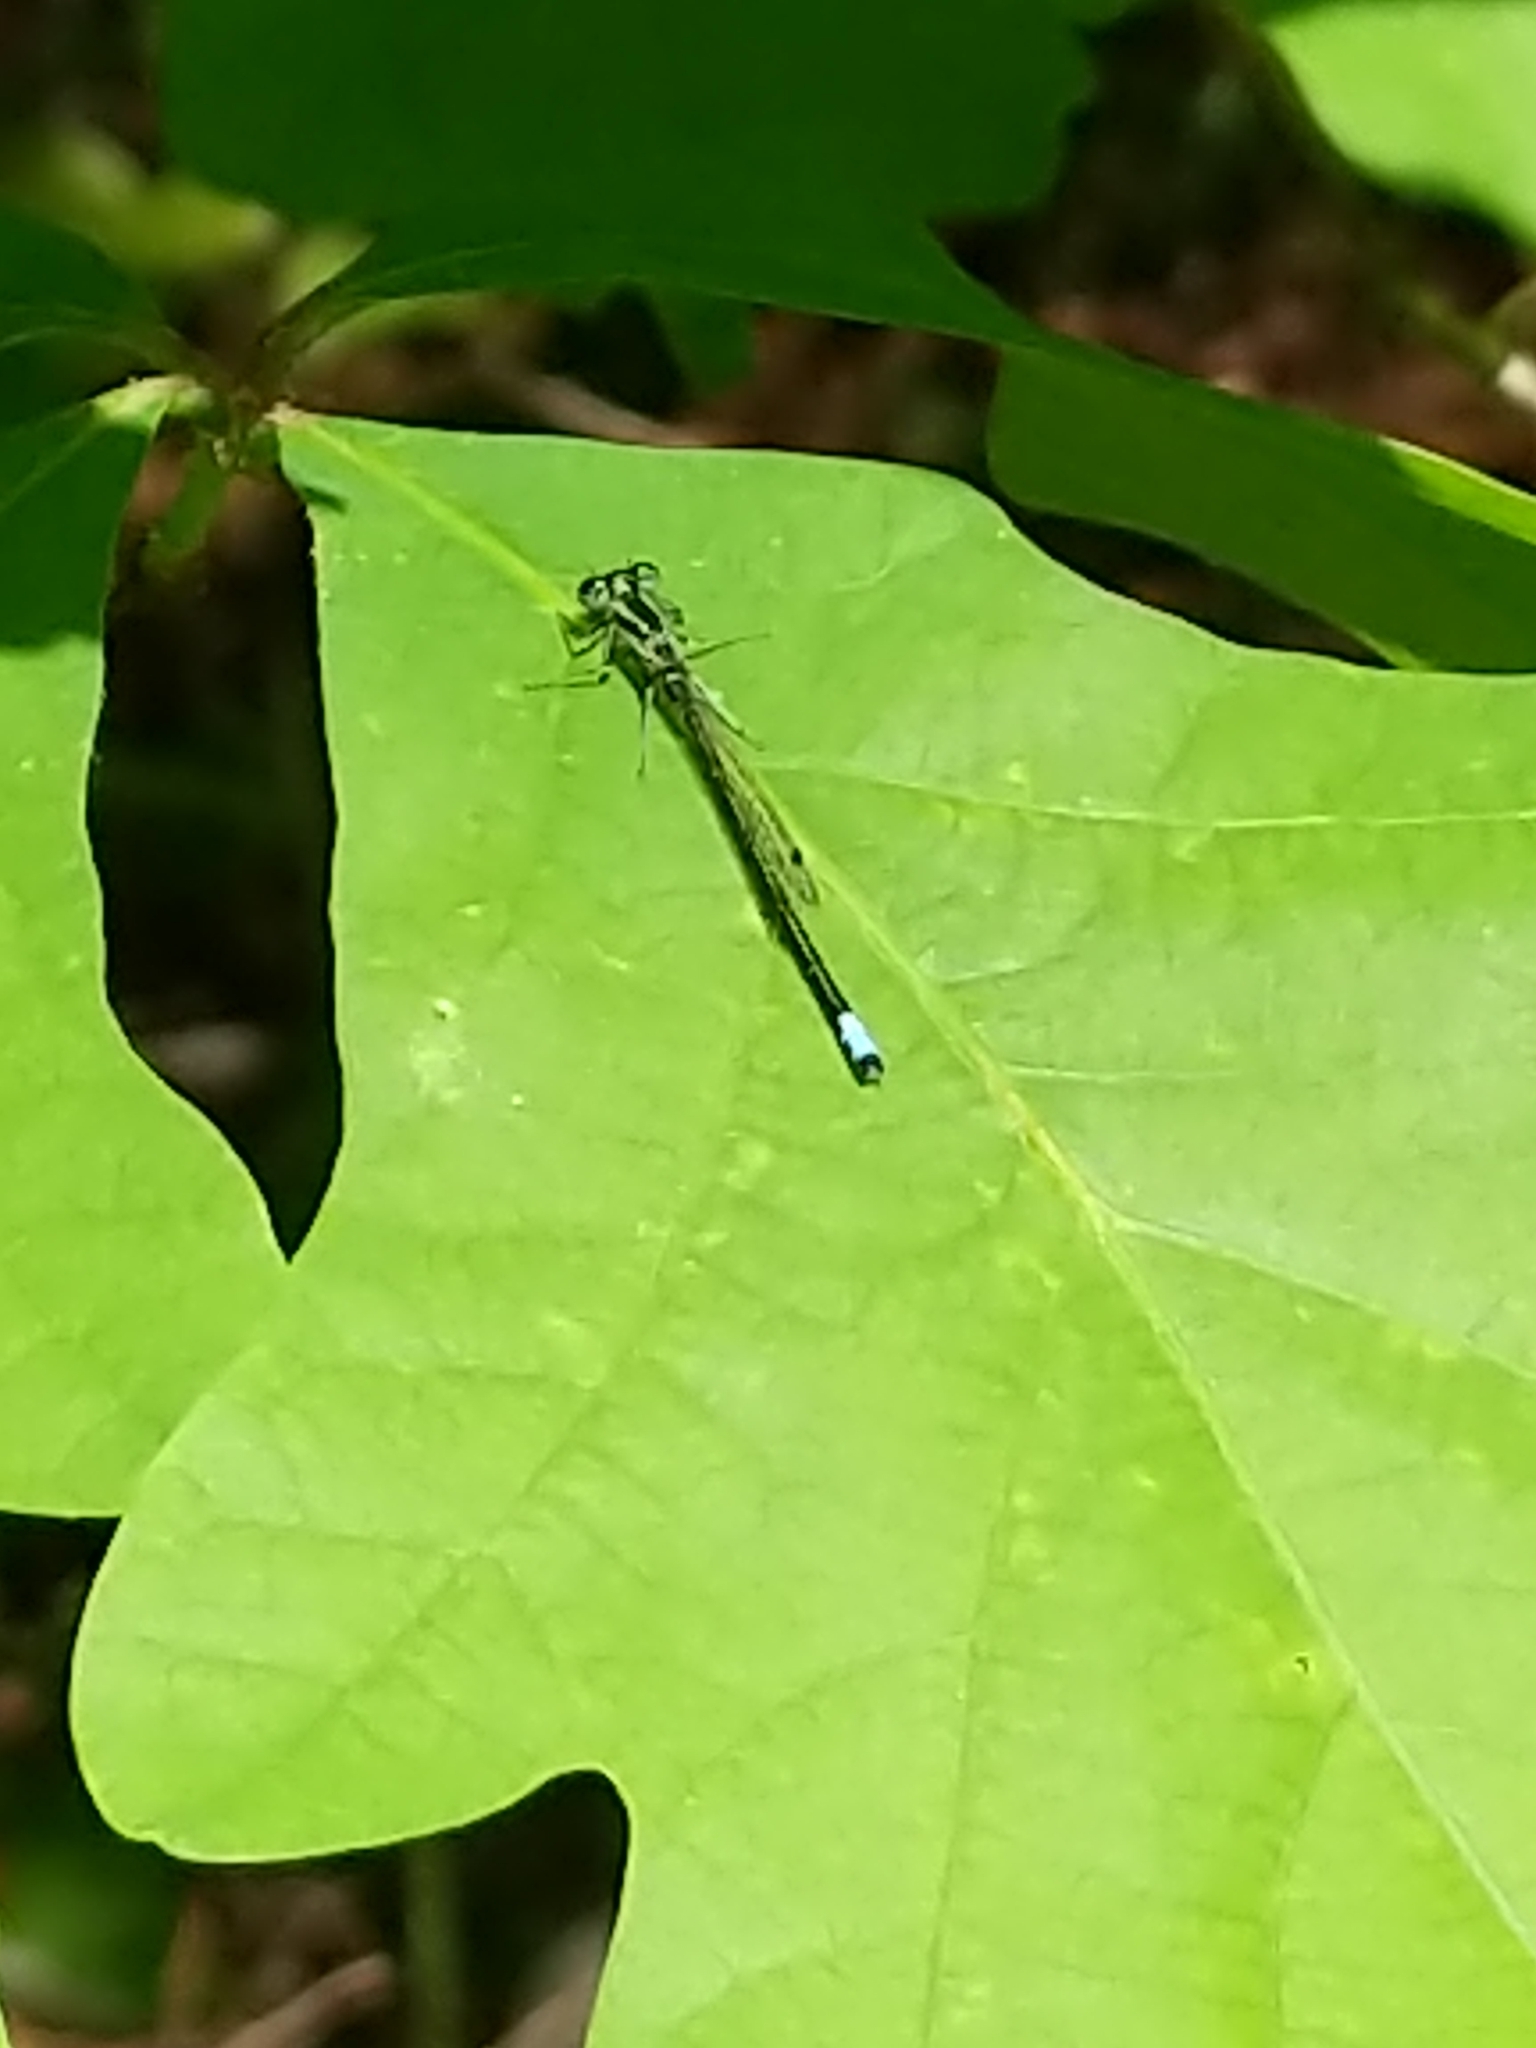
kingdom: Animalia
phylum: Arthropoda
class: Insecta
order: Odonata
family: Coenagrionidae
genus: Ischnura
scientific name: Ischnura verticalis
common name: Eastern forktail
